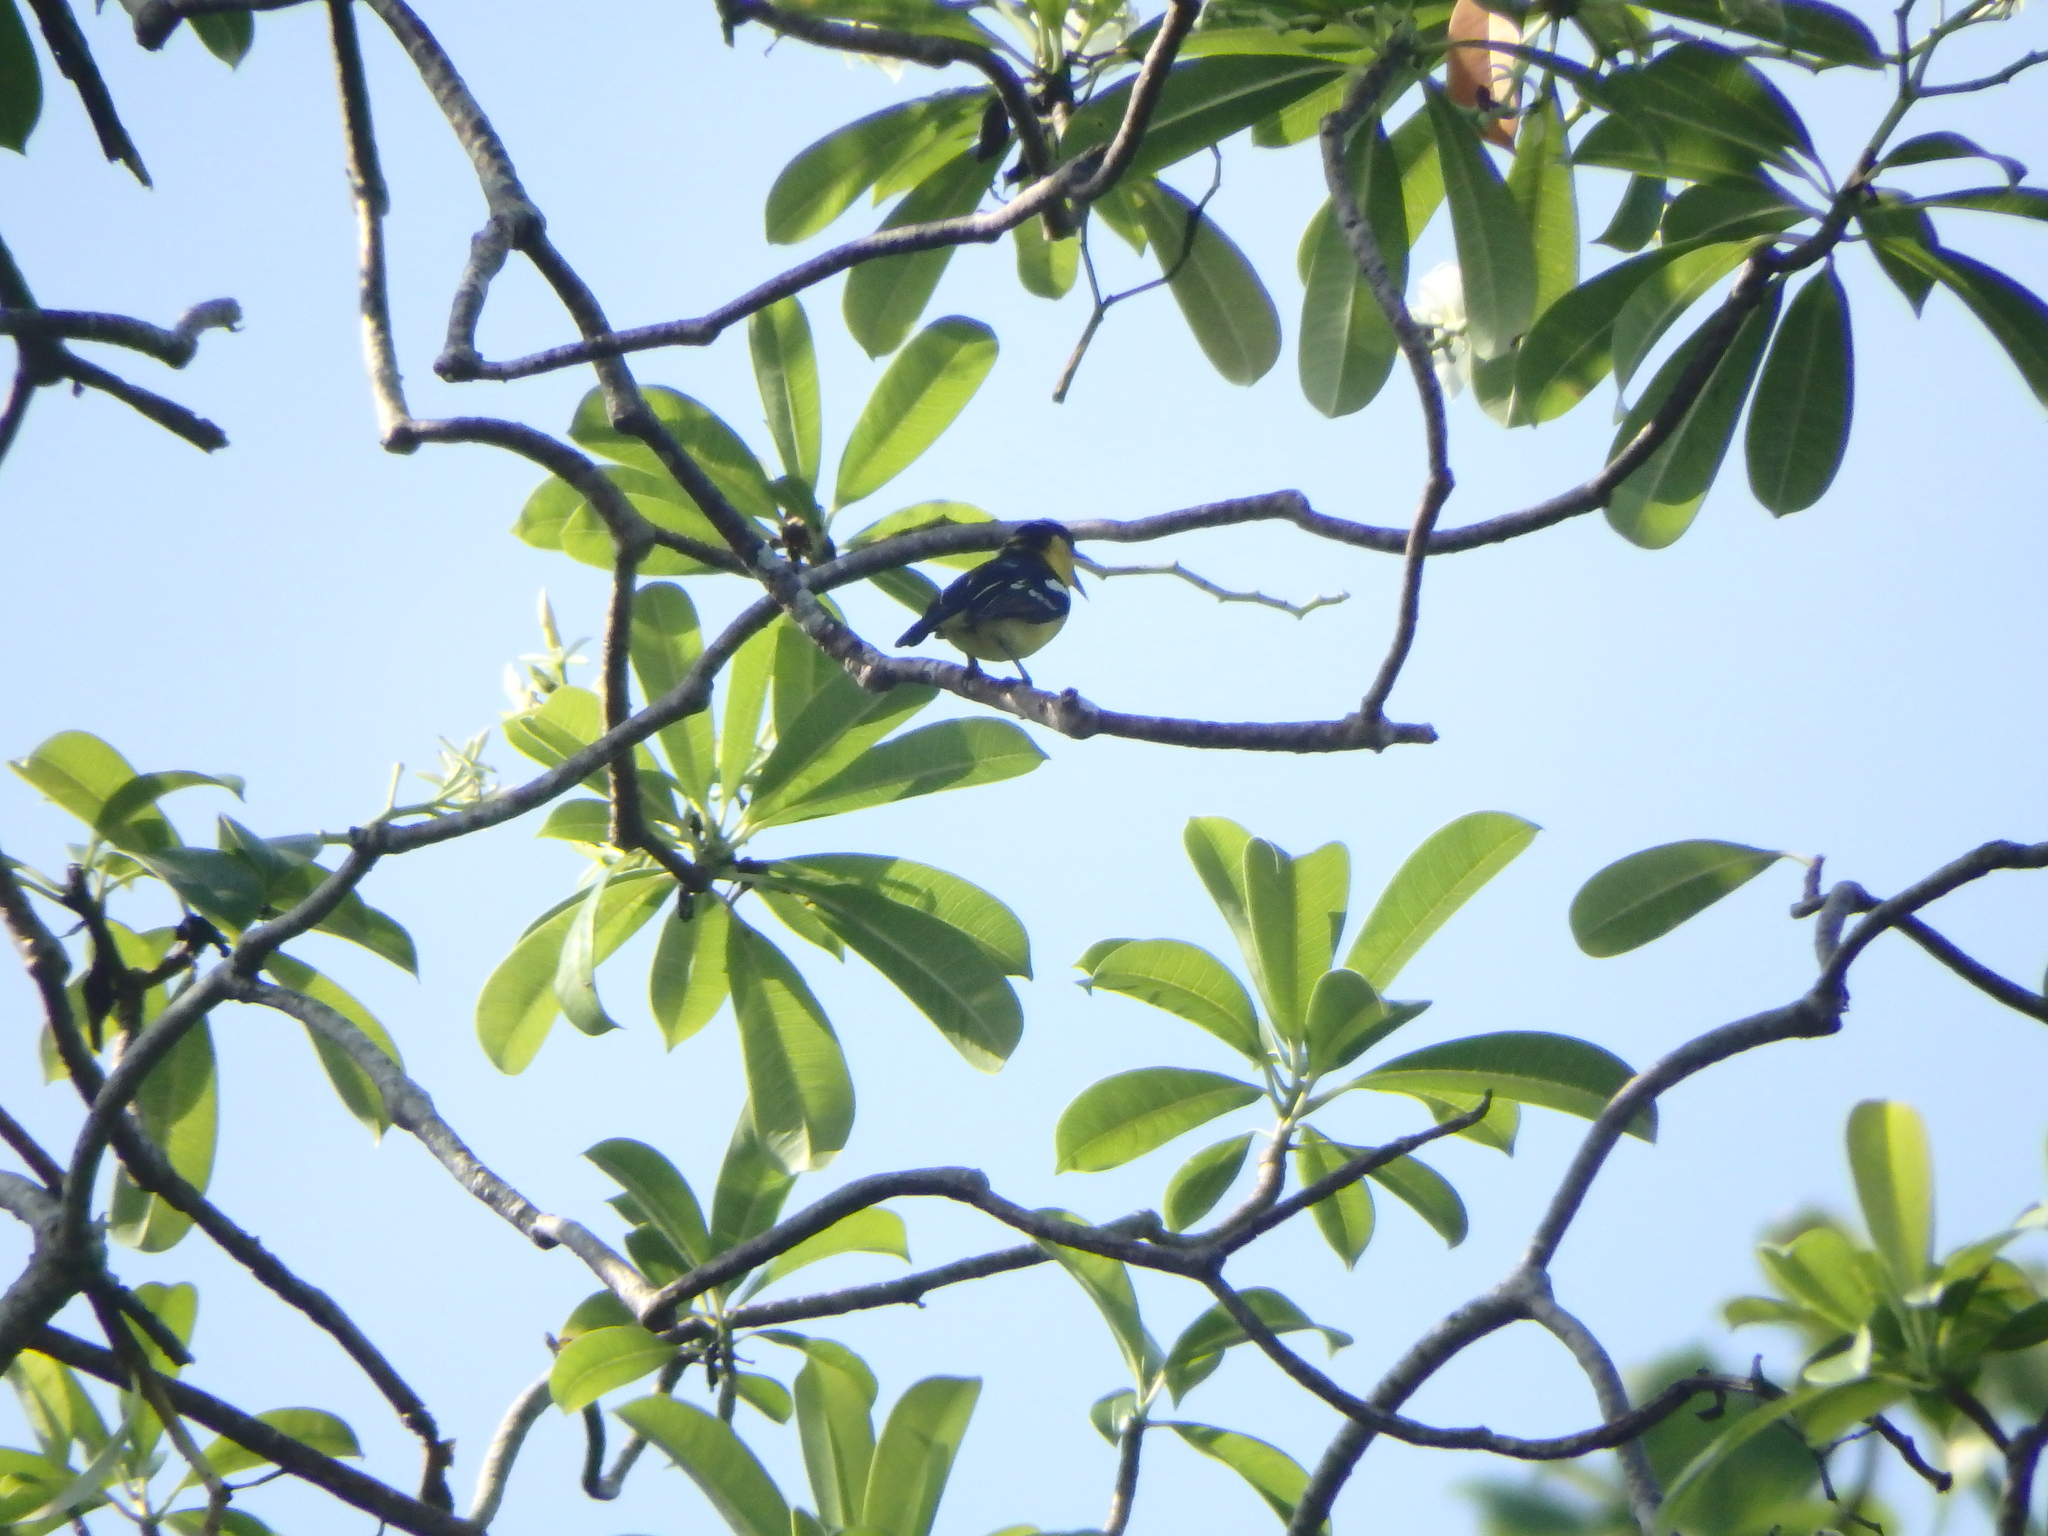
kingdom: Animalia
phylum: Chordata
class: Aves
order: Passeriformes
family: Aegithinidae
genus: Aegithina
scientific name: Aegithina tiphia
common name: Common iora
